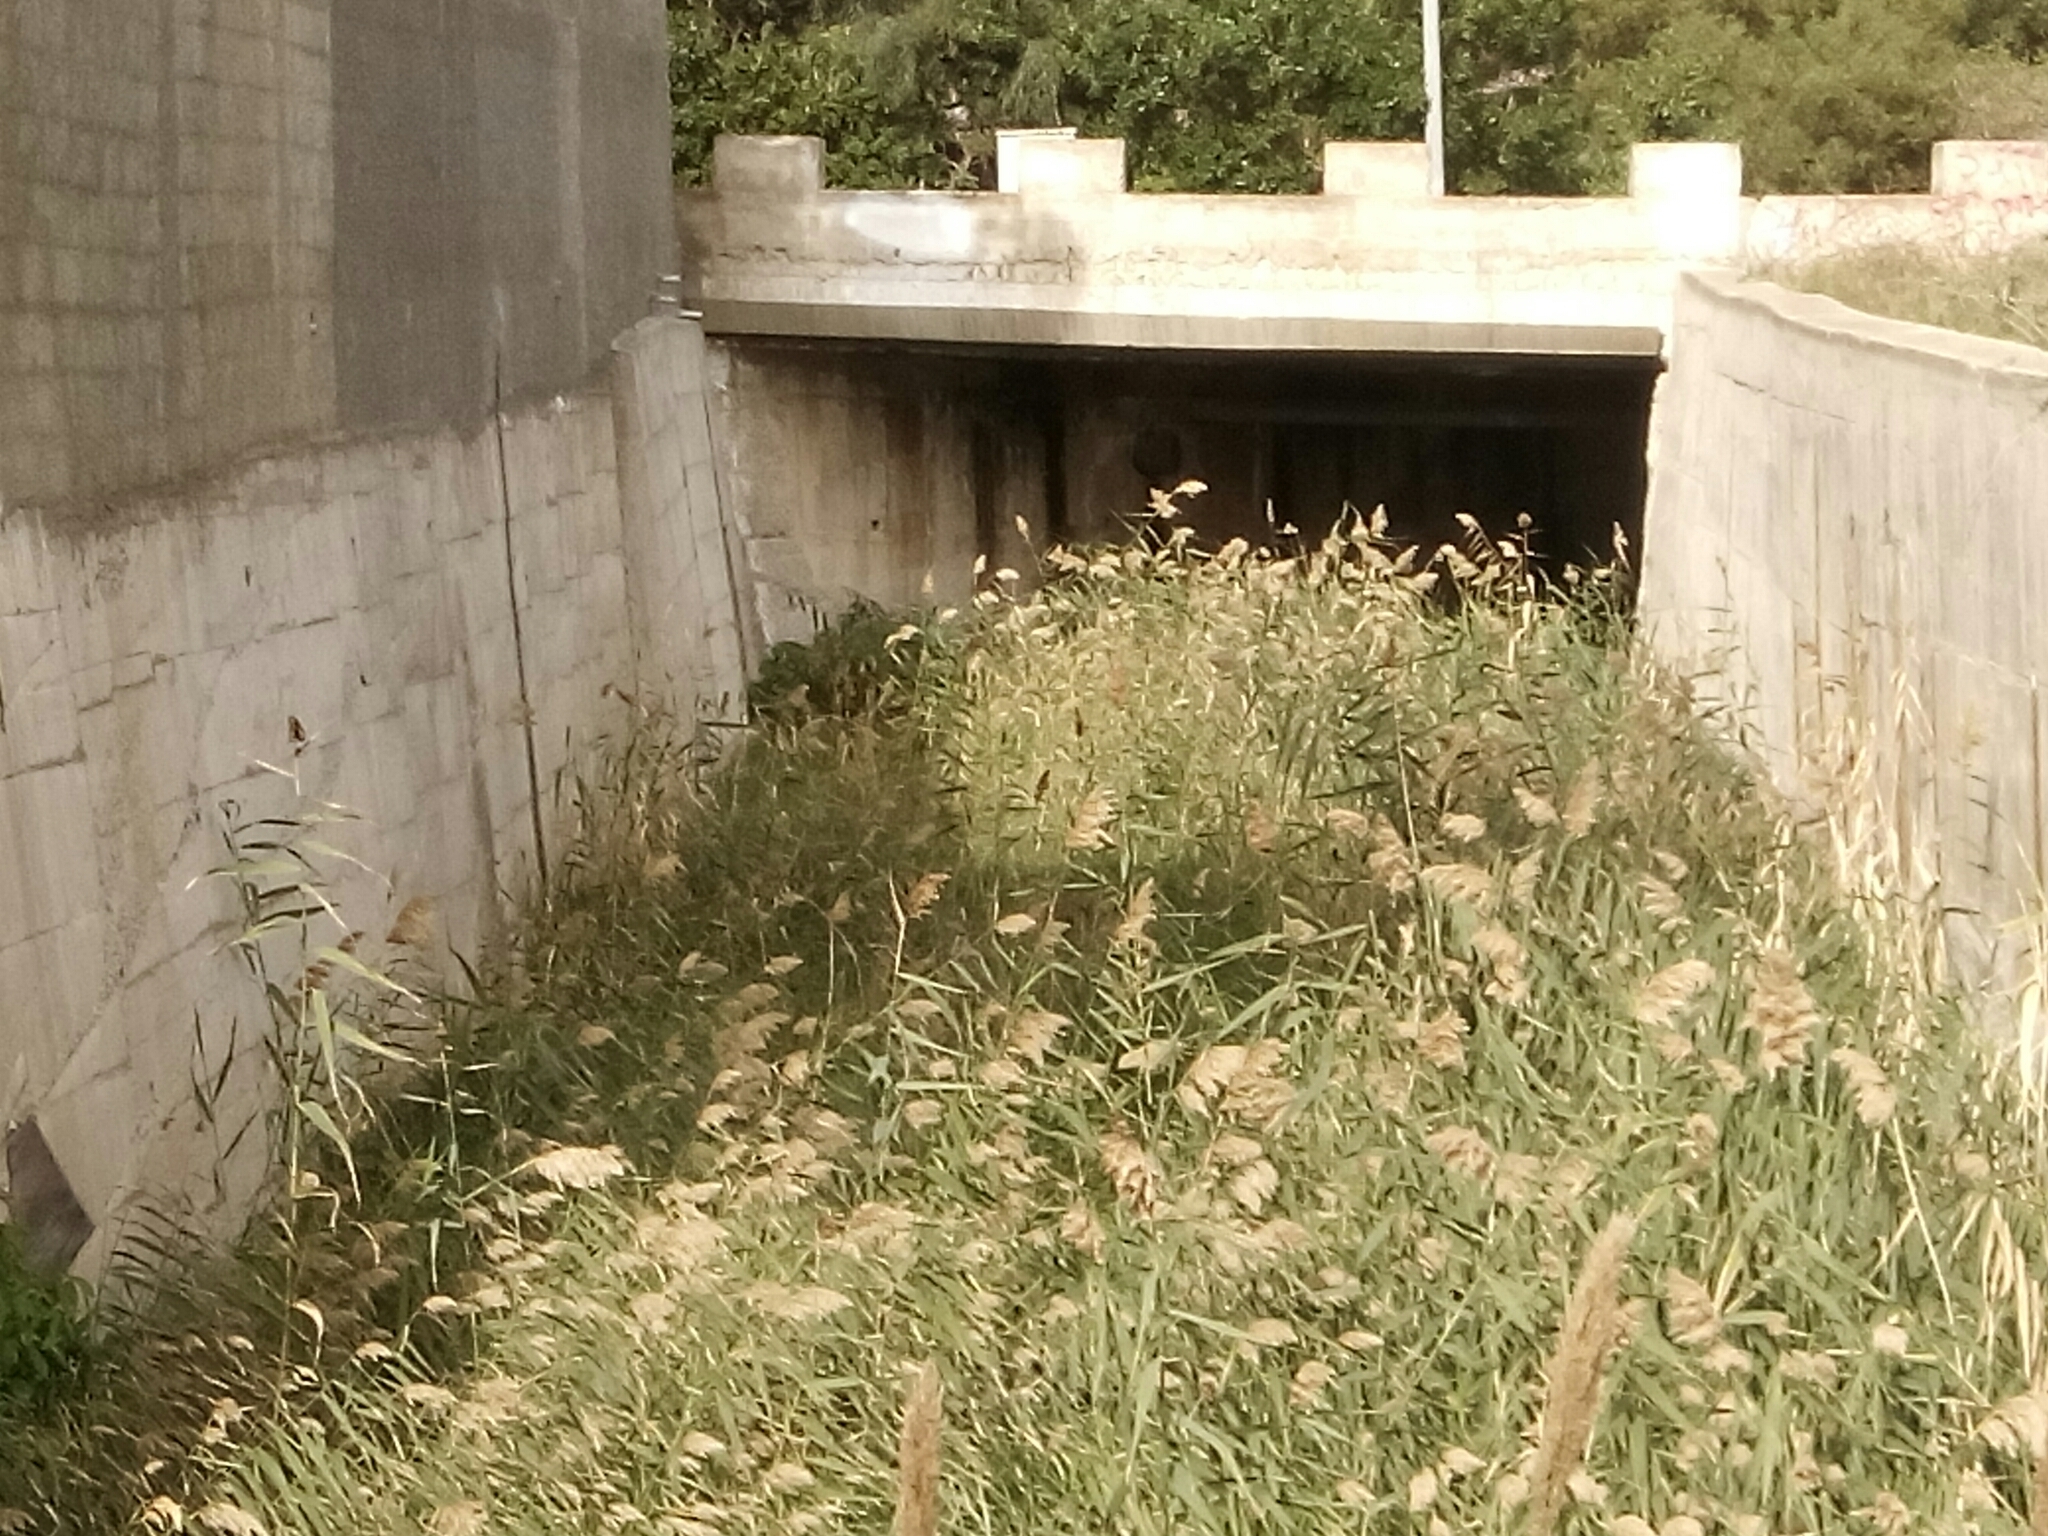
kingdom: Plantae
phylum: Tracheophyta
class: Liliopsida
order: Poales
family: Poaceae
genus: Phragmites
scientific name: Phragmites australis
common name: Common reed
